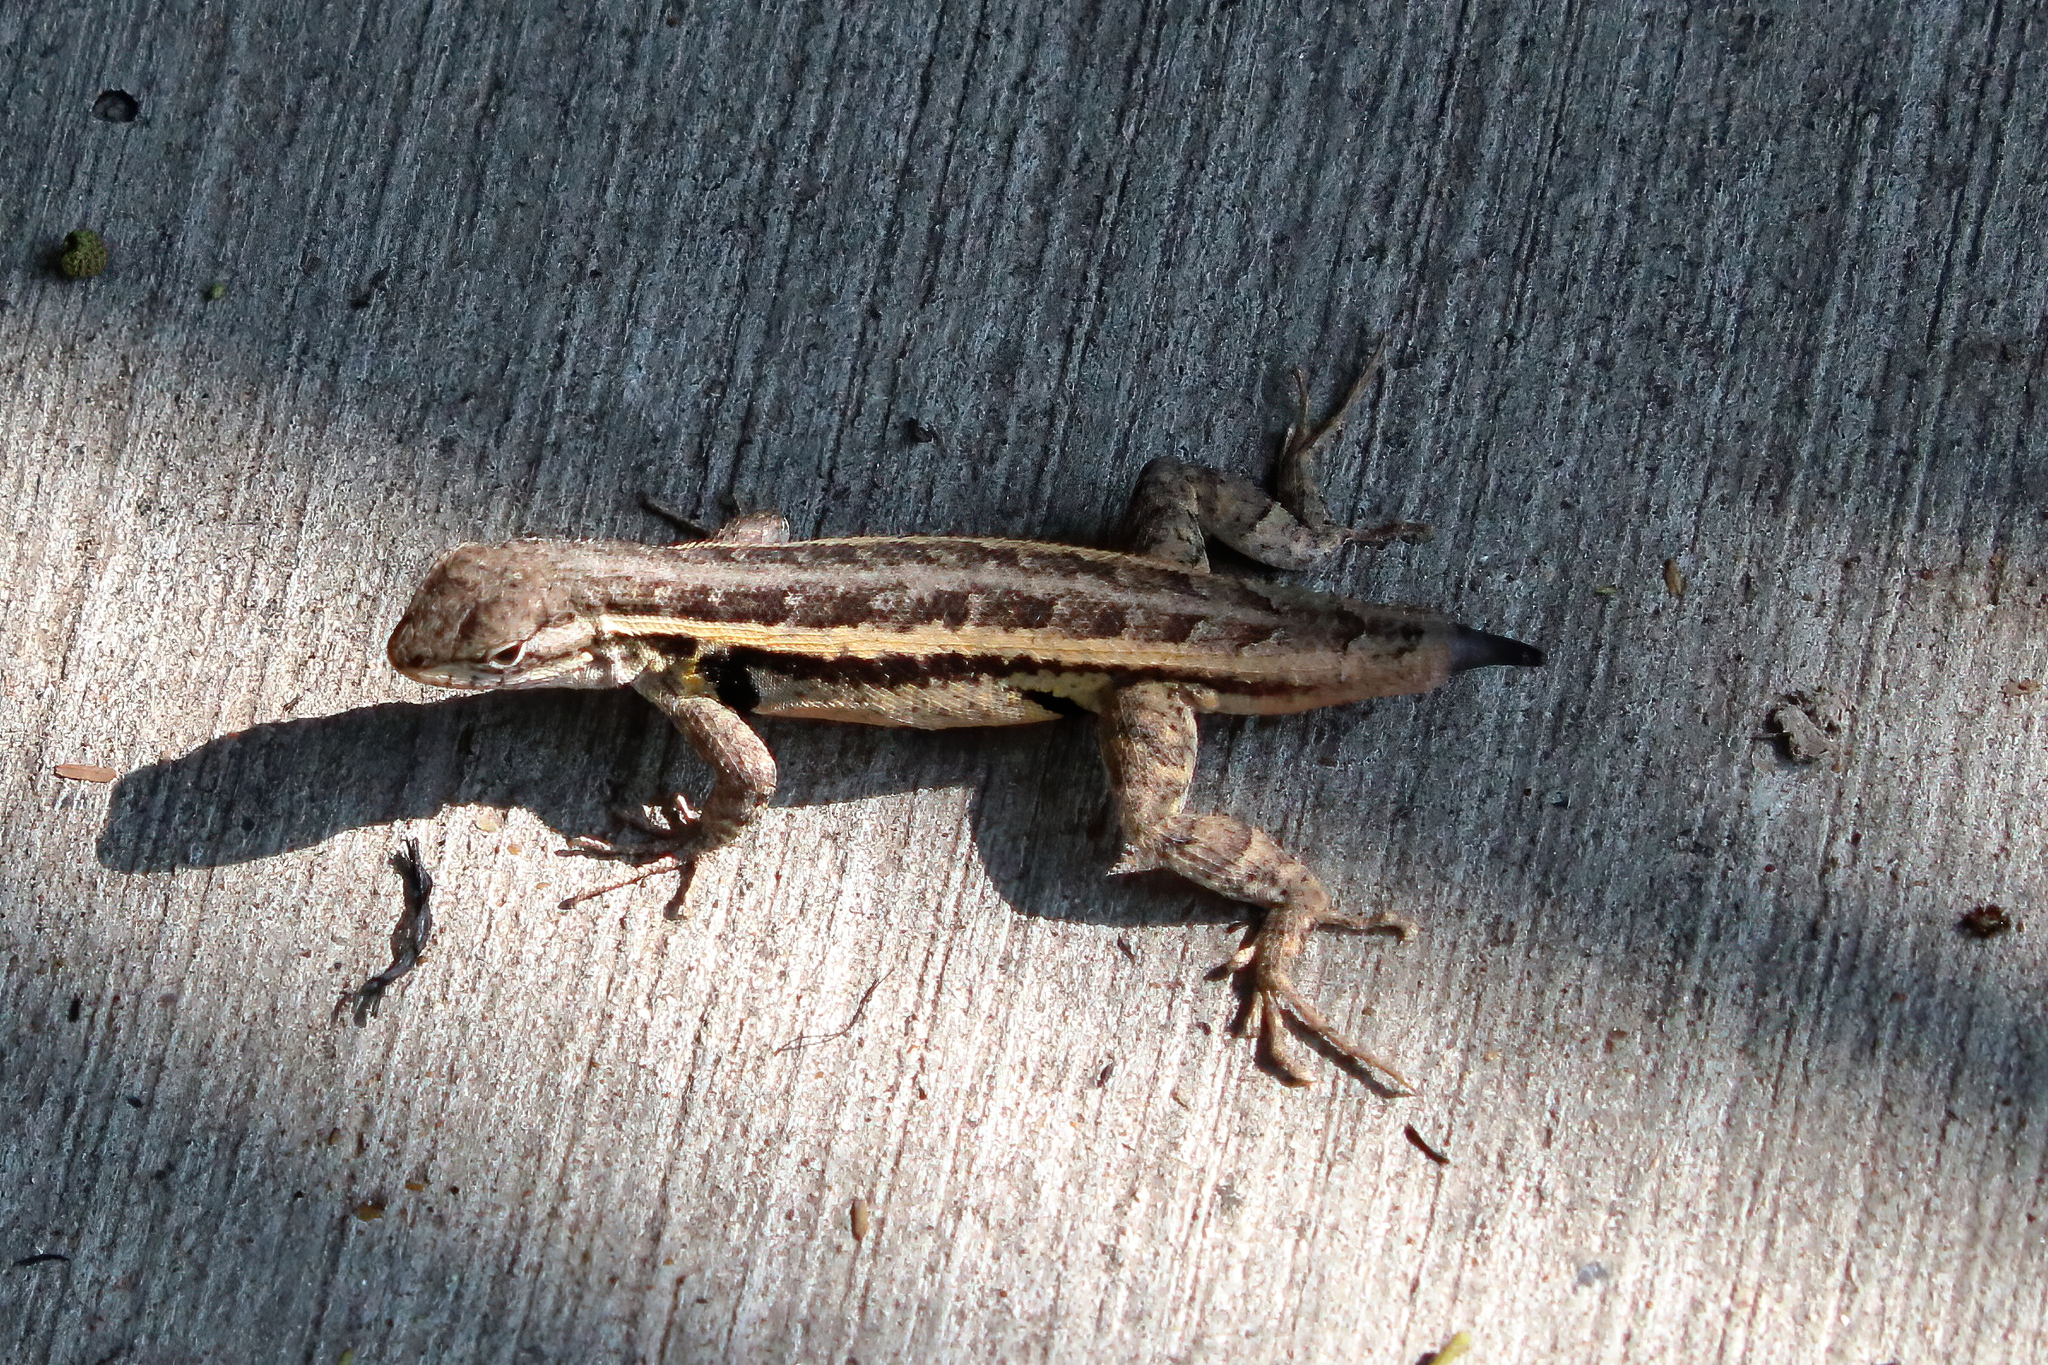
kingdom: Animalia
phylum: Chordata
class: Squamata
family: Phrynosomatidae
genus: Sceloporus
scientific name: Sceloporus variabilis
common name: Rosebelly lizard
